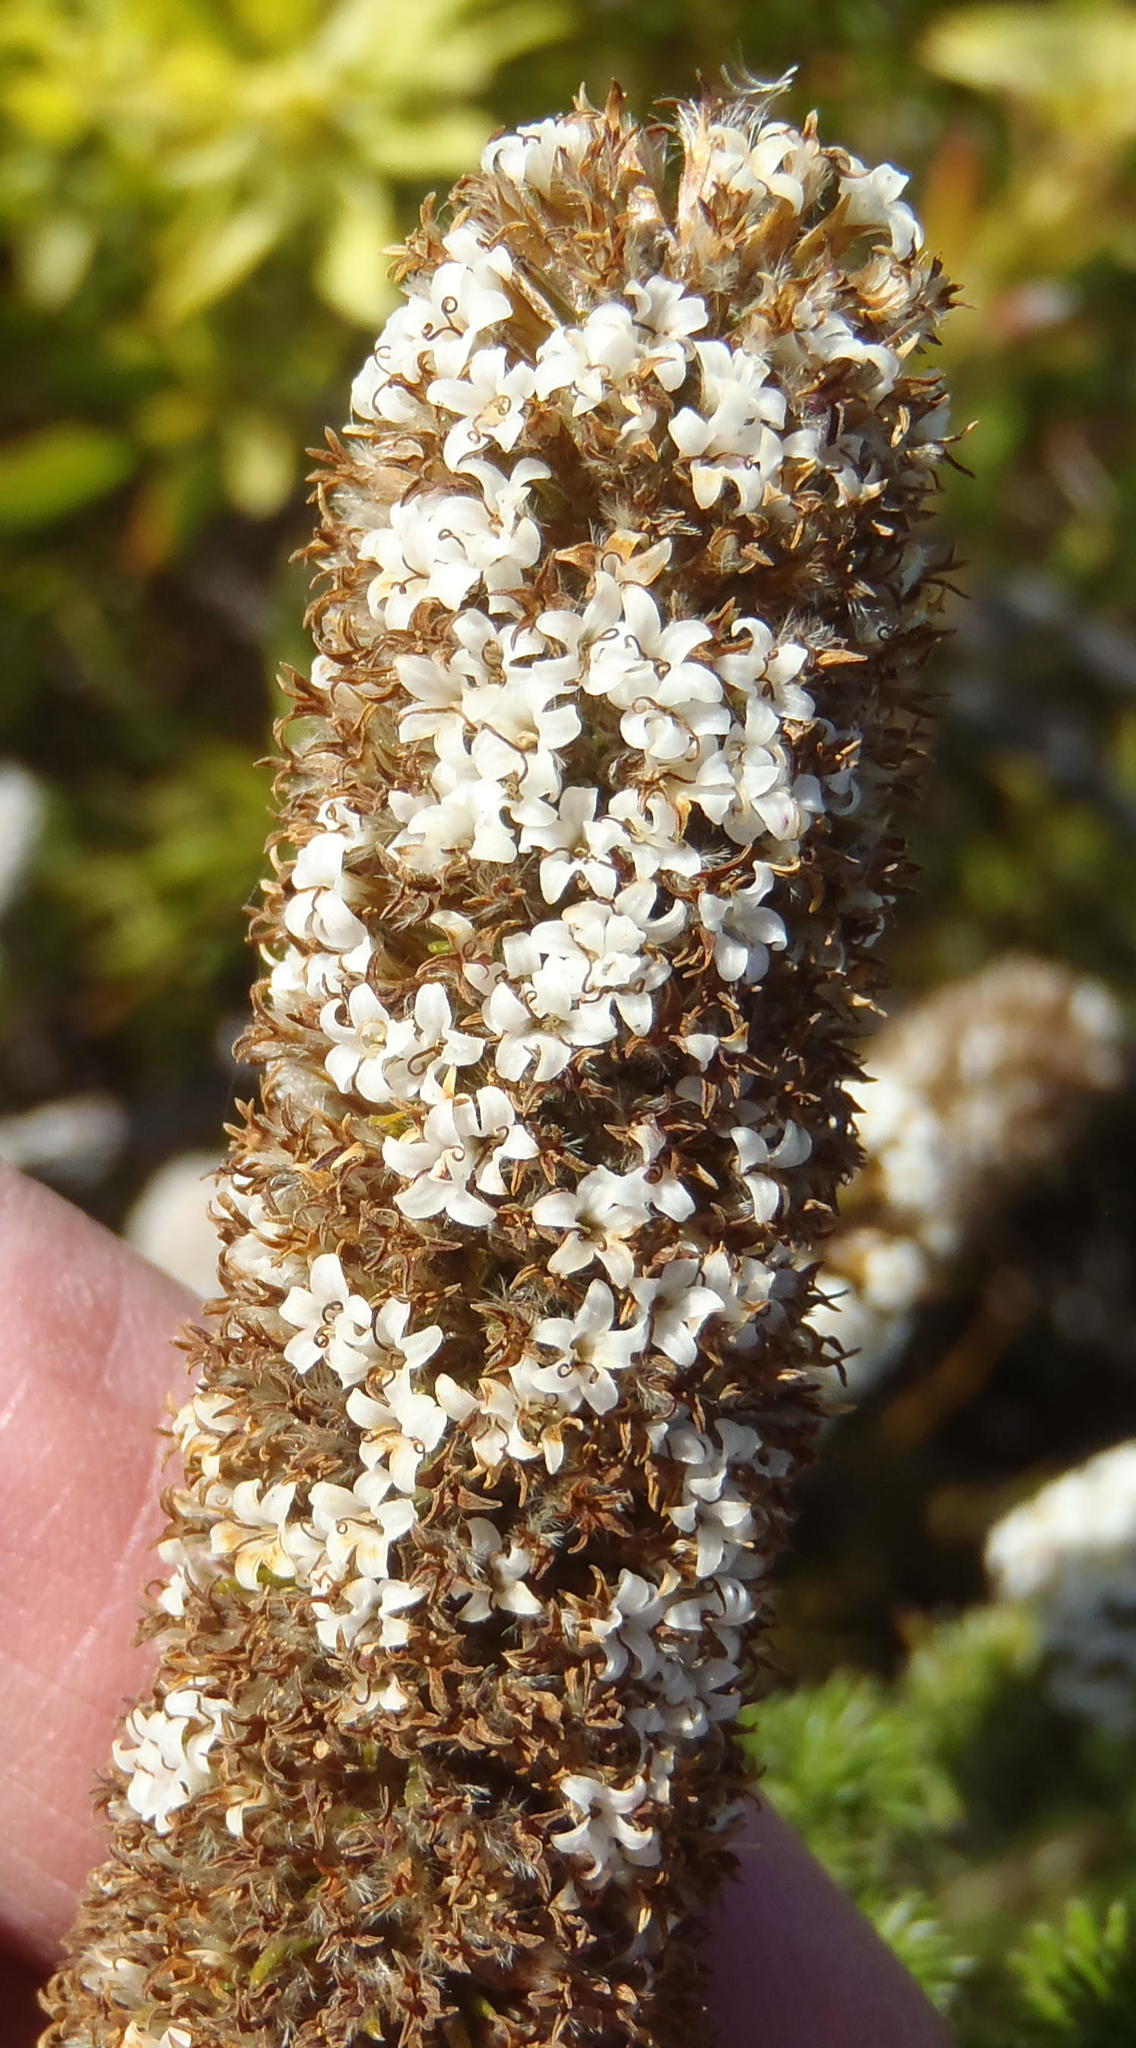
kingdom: Plantae
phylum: Tracheophyta
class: Magnoliopsida
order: Asterales
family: Asteraceae
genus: Stoebe
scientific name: Stoebe alopecuroides
